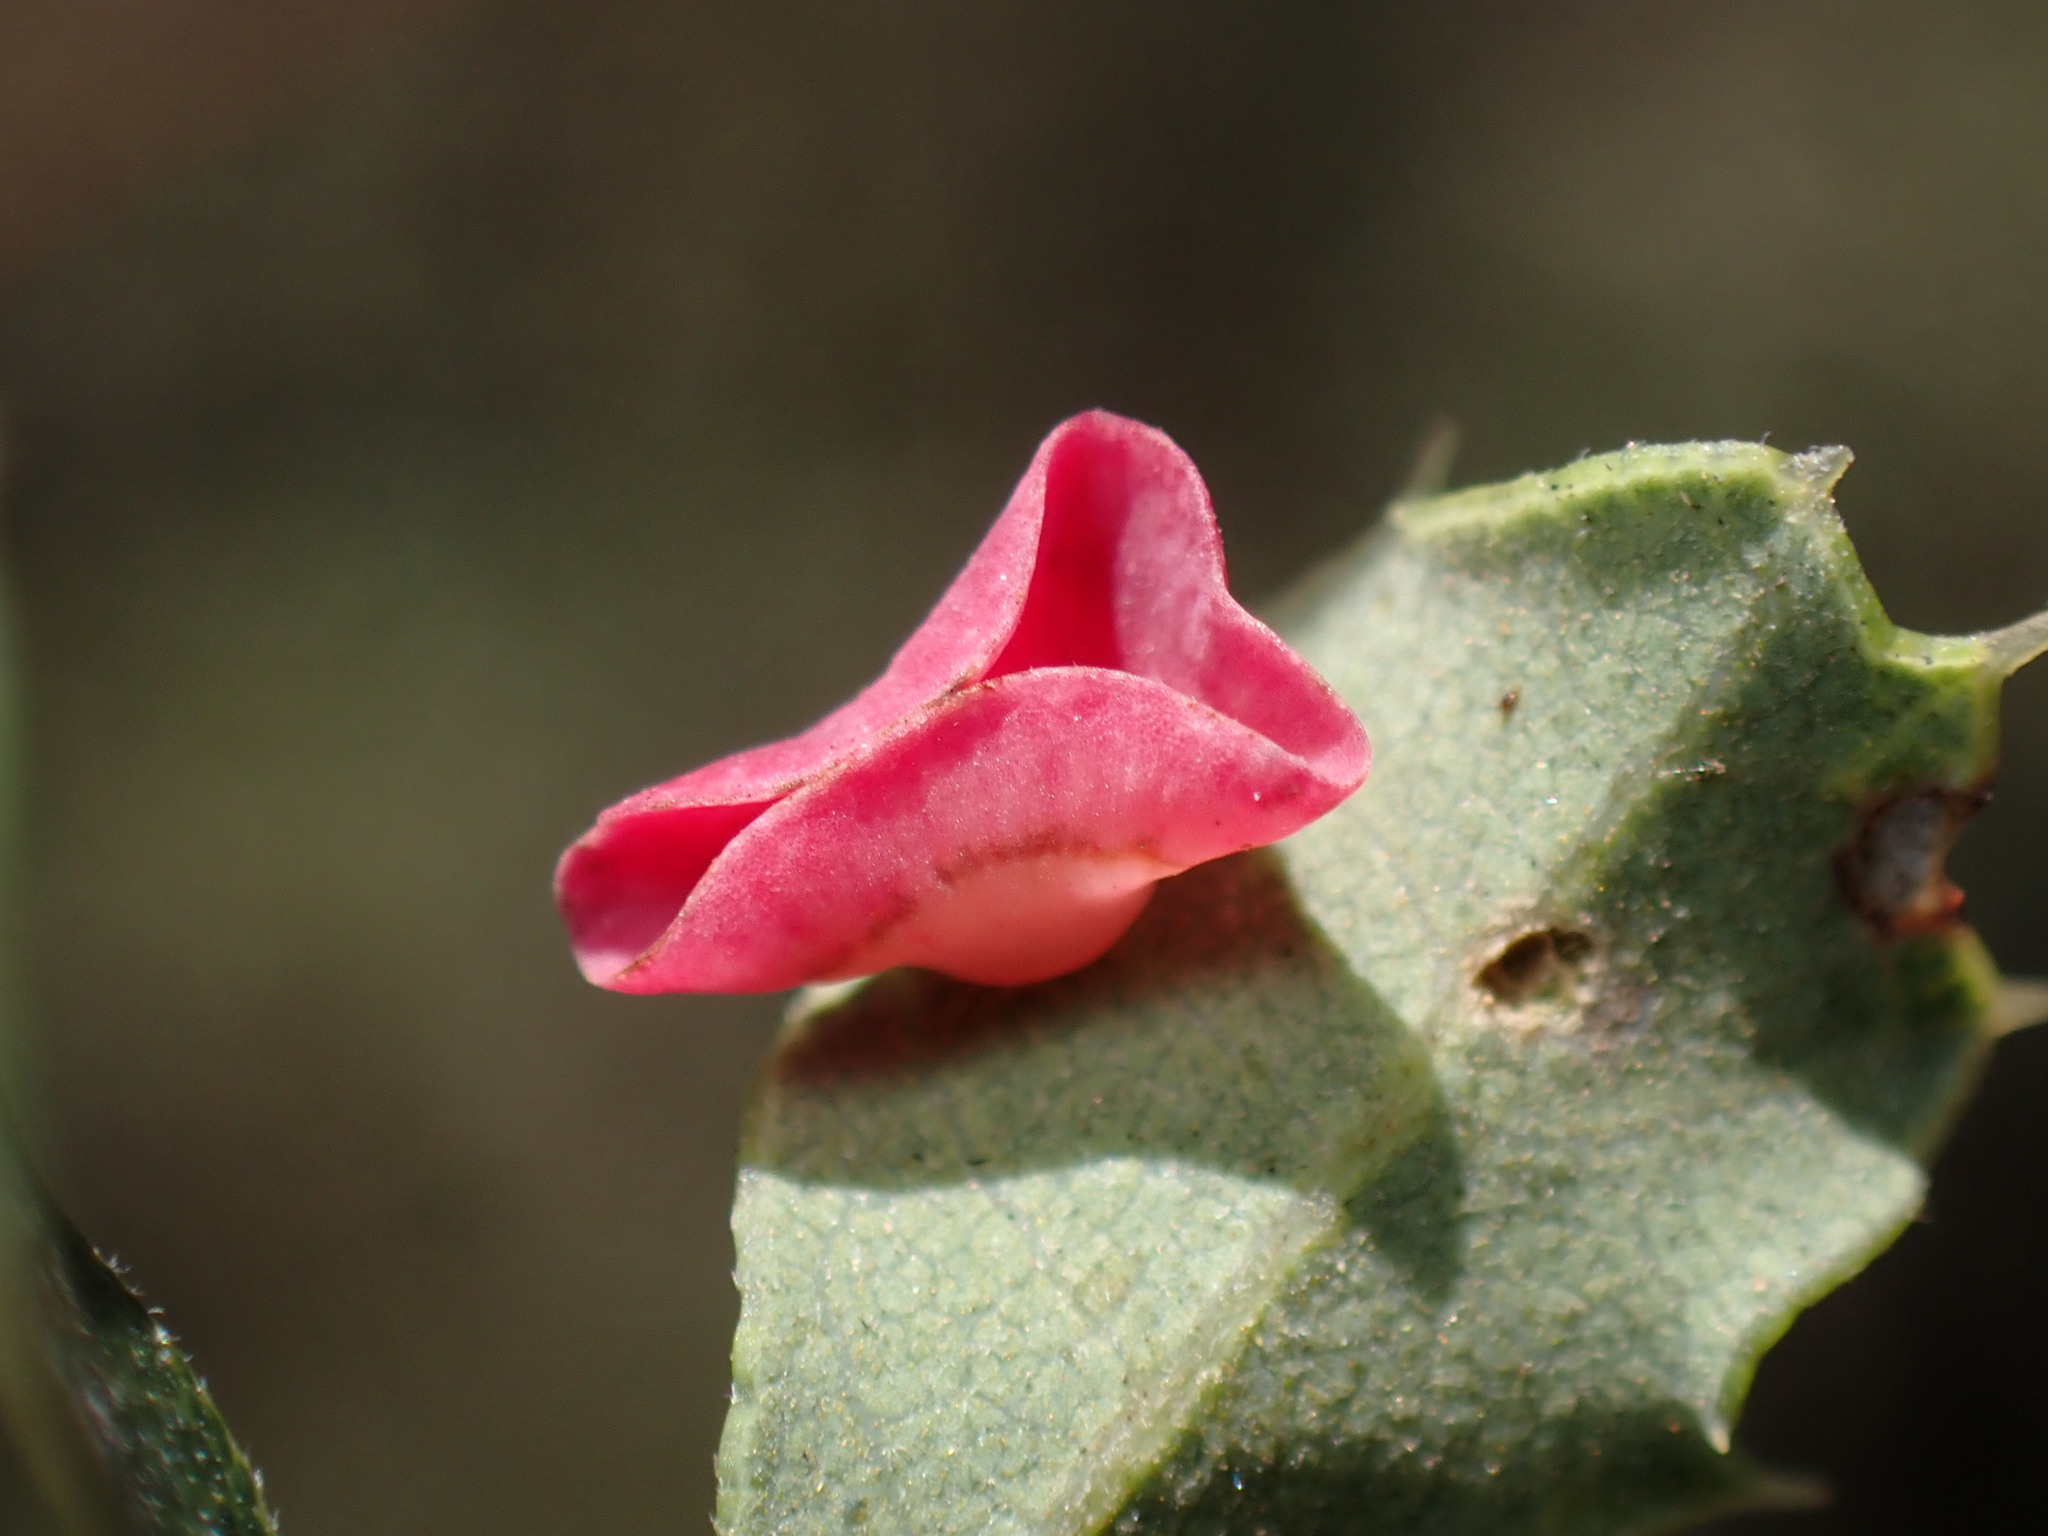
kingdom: Animalia
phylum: Arthropoda
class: Insecta
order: Hymenoptera
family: Cynipidae
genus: Andricus
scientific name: Andricus
